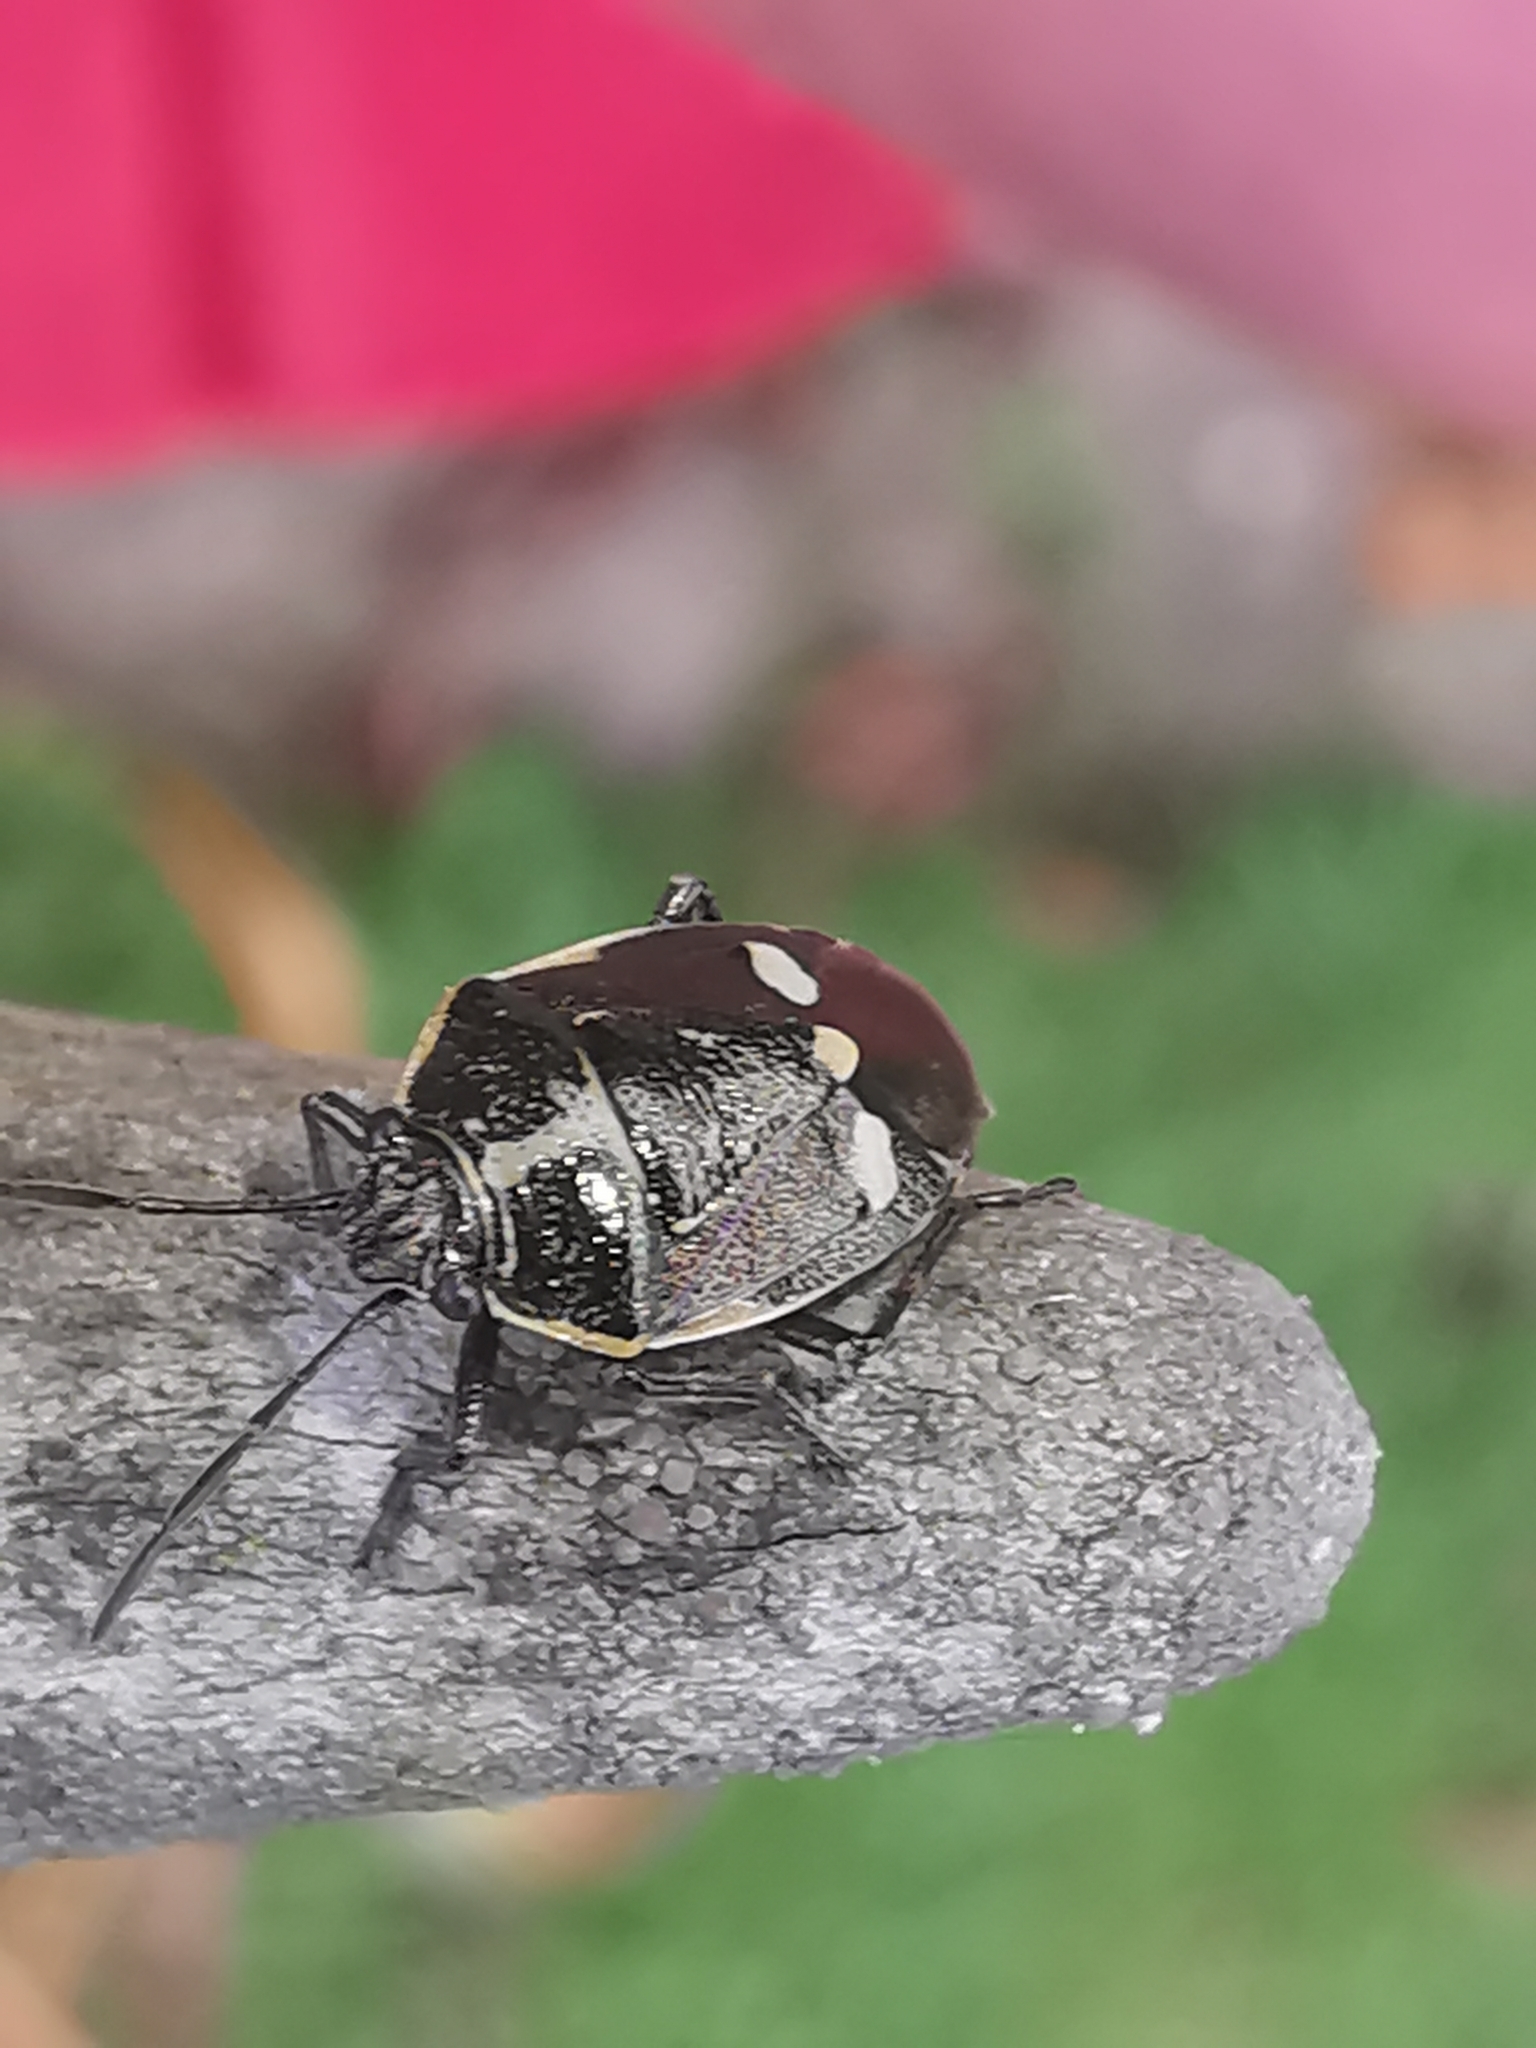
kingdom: Animalia
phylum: Arthropoda
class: Insecta
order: Hemiptera
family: Pentatomidae
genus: Eurydema
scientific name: Eurydema oleracea
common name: Cabbage bug
